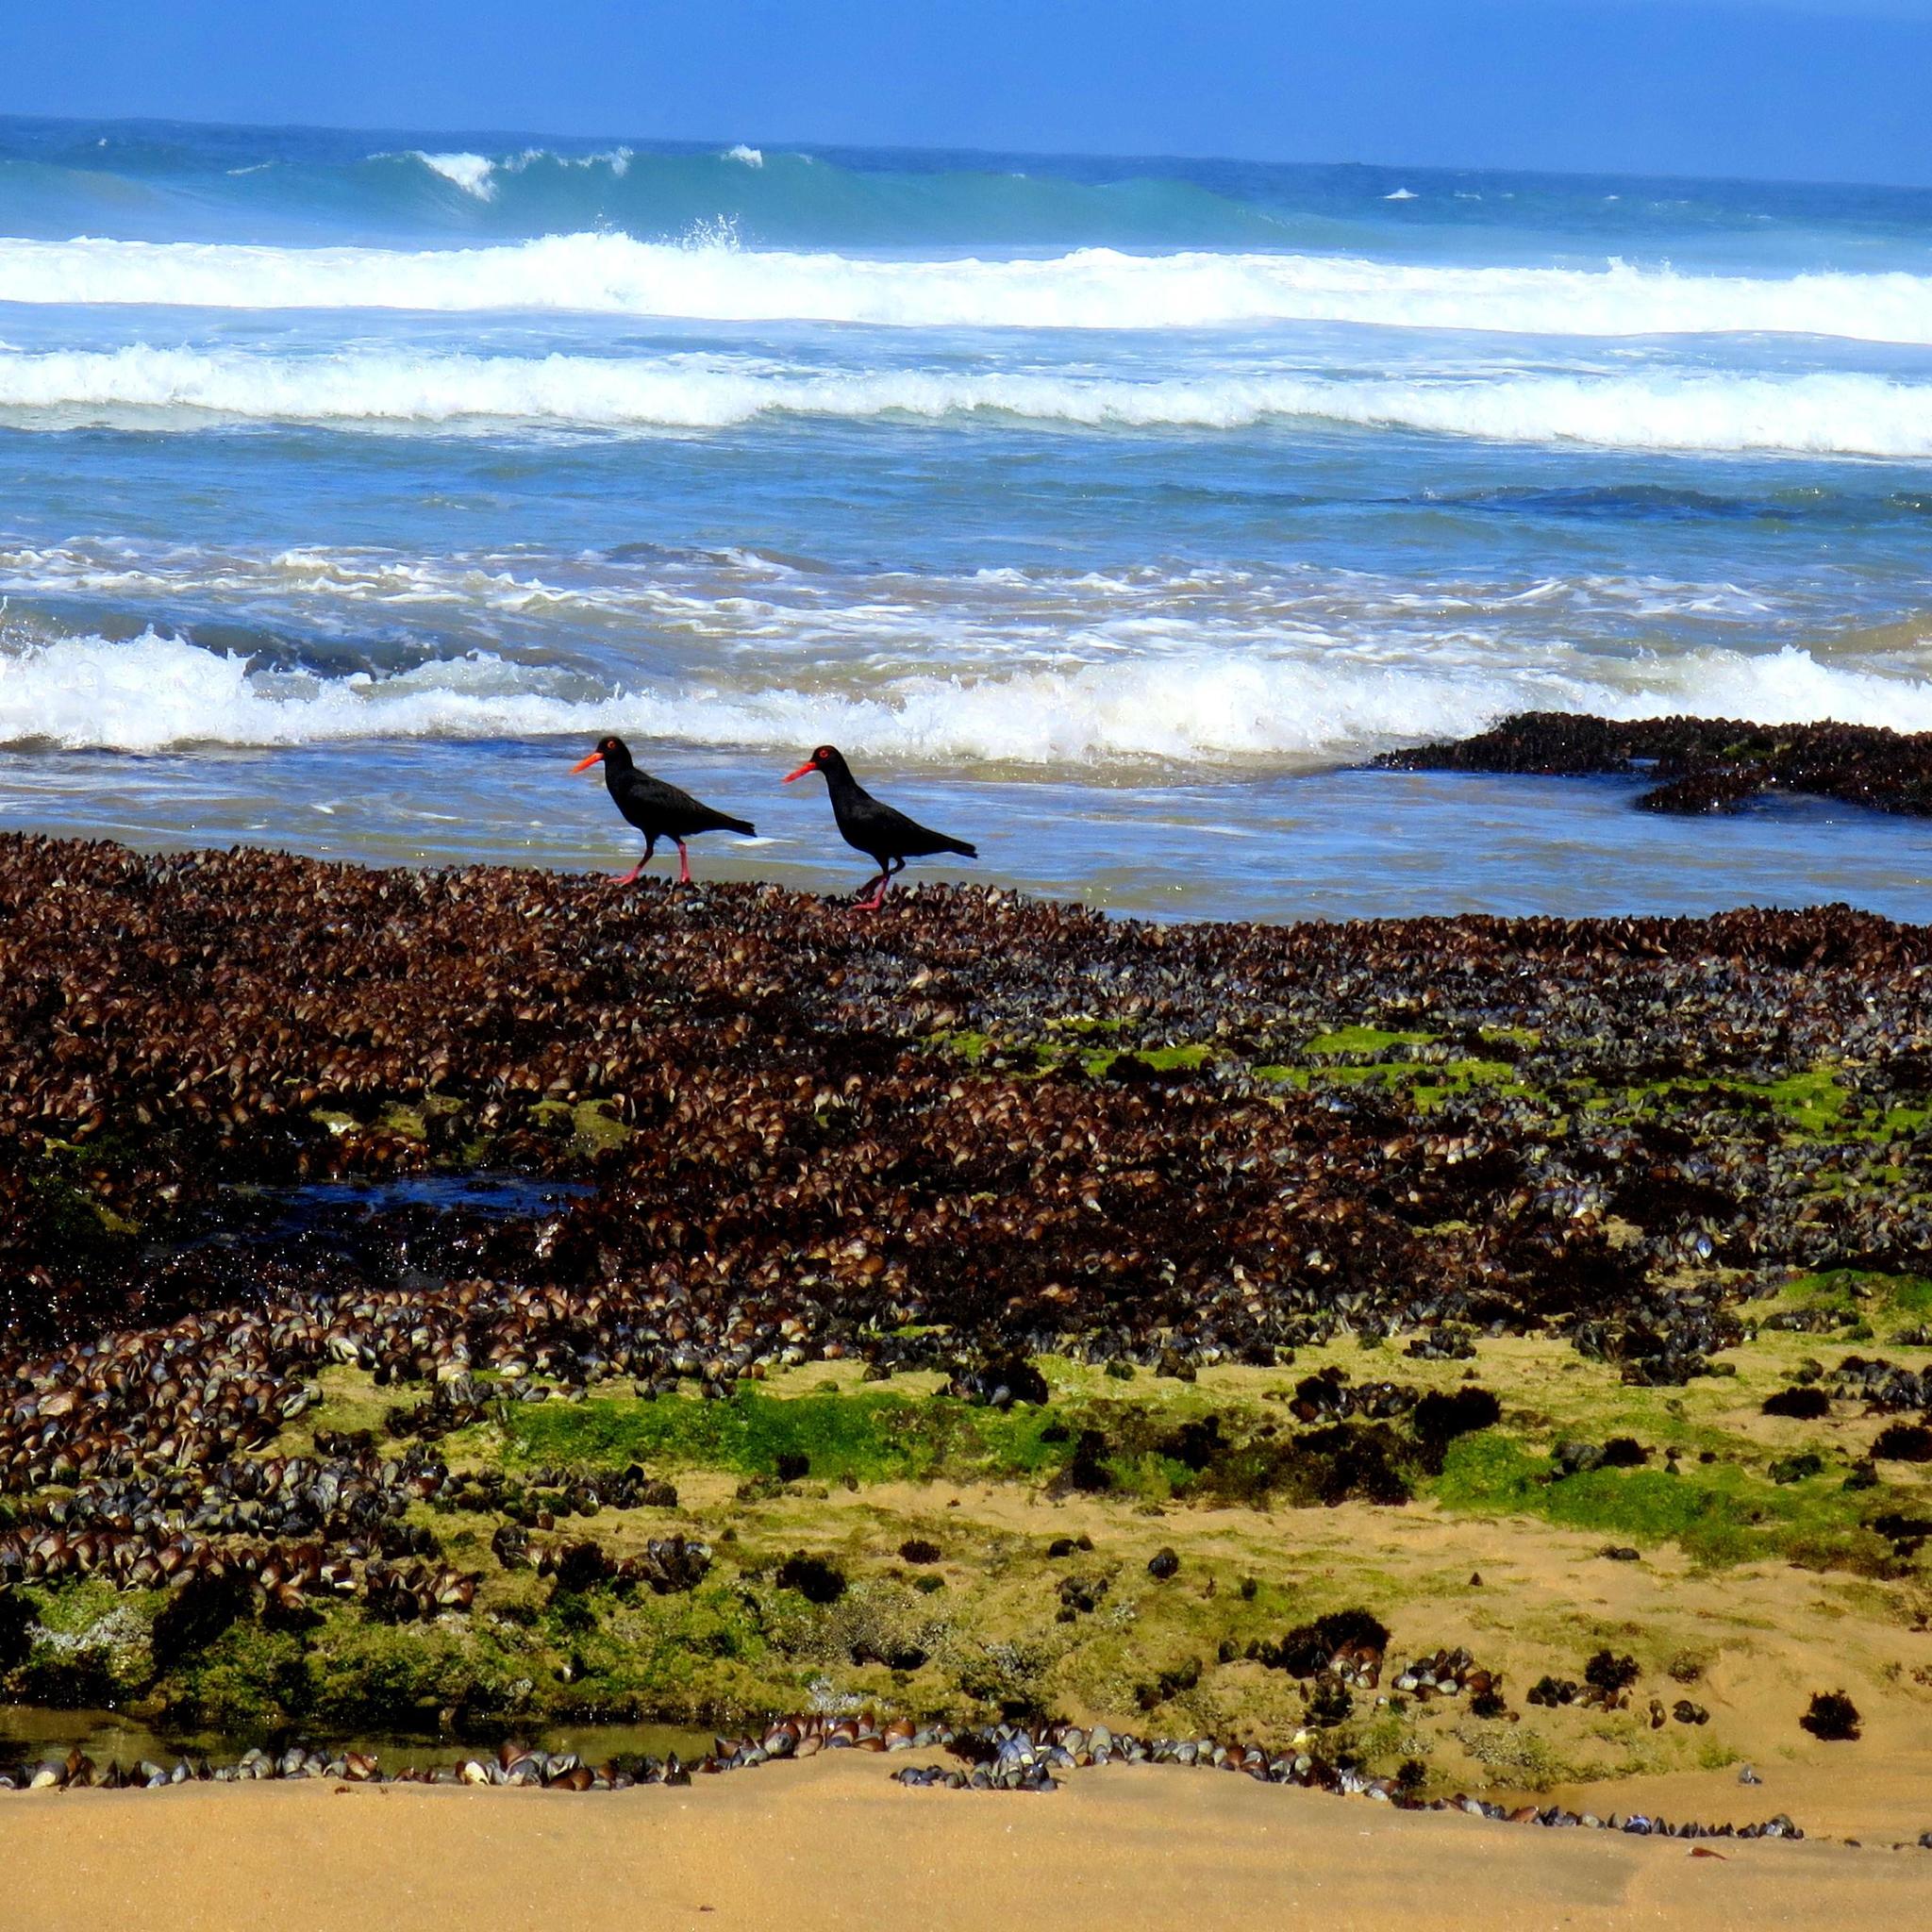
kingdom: Animalia
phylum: Chordata
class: Aves
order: Charadriiformes
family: Haematopodidae
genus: Haematopus
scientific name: Haematopus moquini
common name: African oystercatcher
